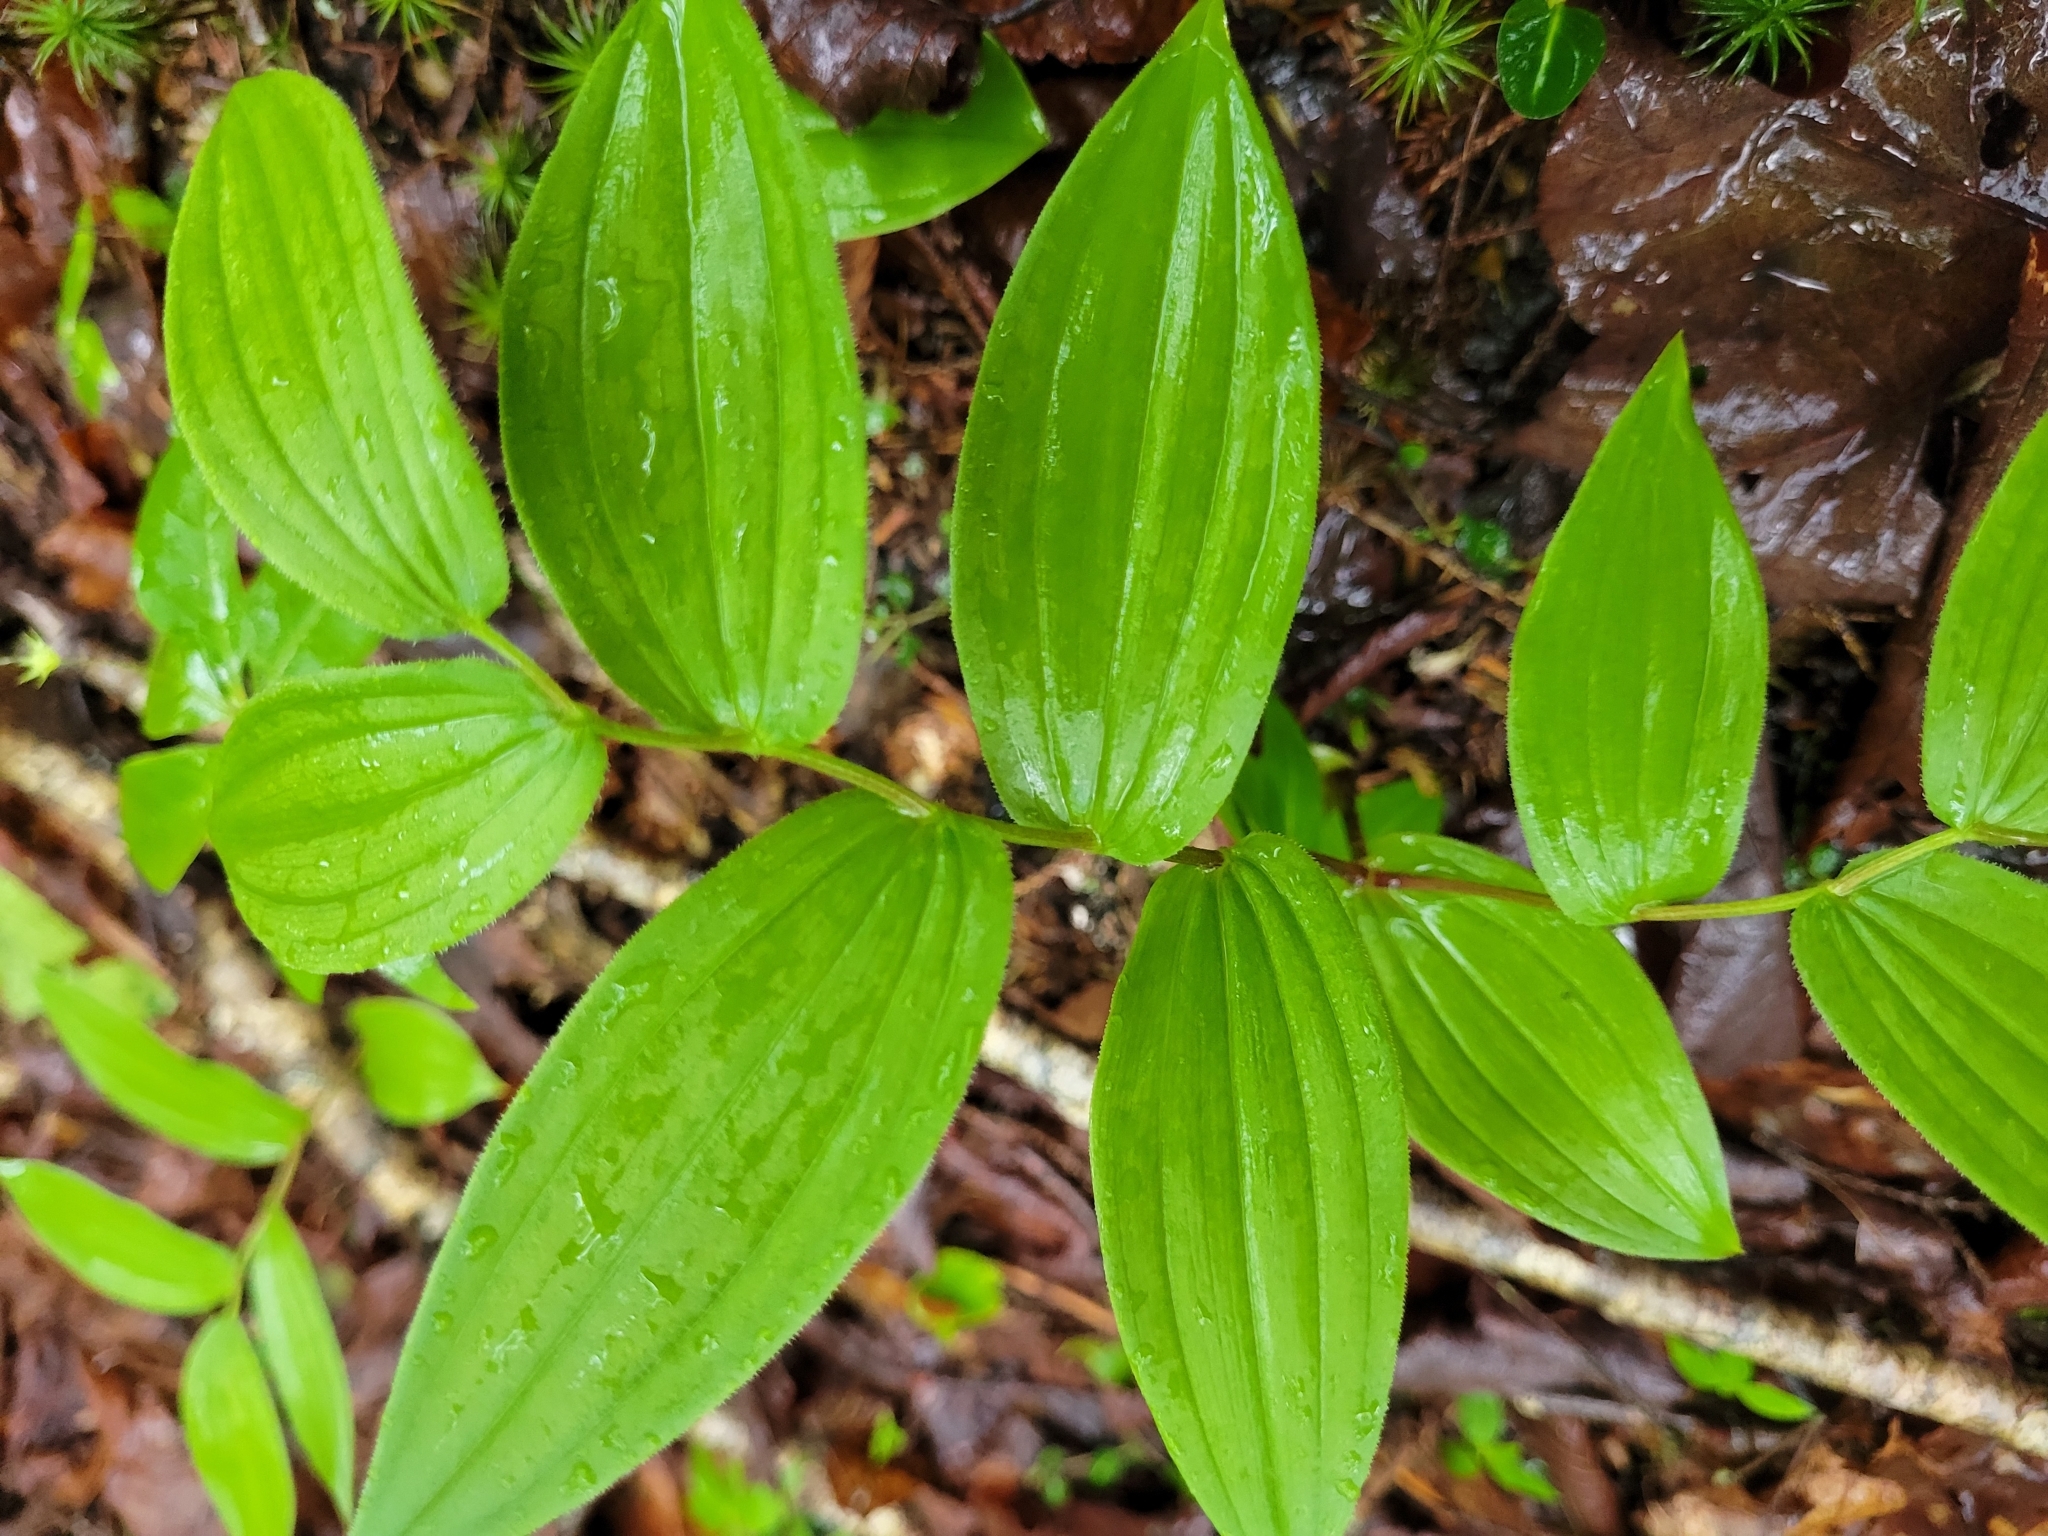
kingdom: Plantae
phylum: Tracheophyta
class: Liliopsida
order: Liliales
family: Liliaceae
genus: Streptopus
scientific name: Streptopus lanceolatus
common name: Rose mandarin
